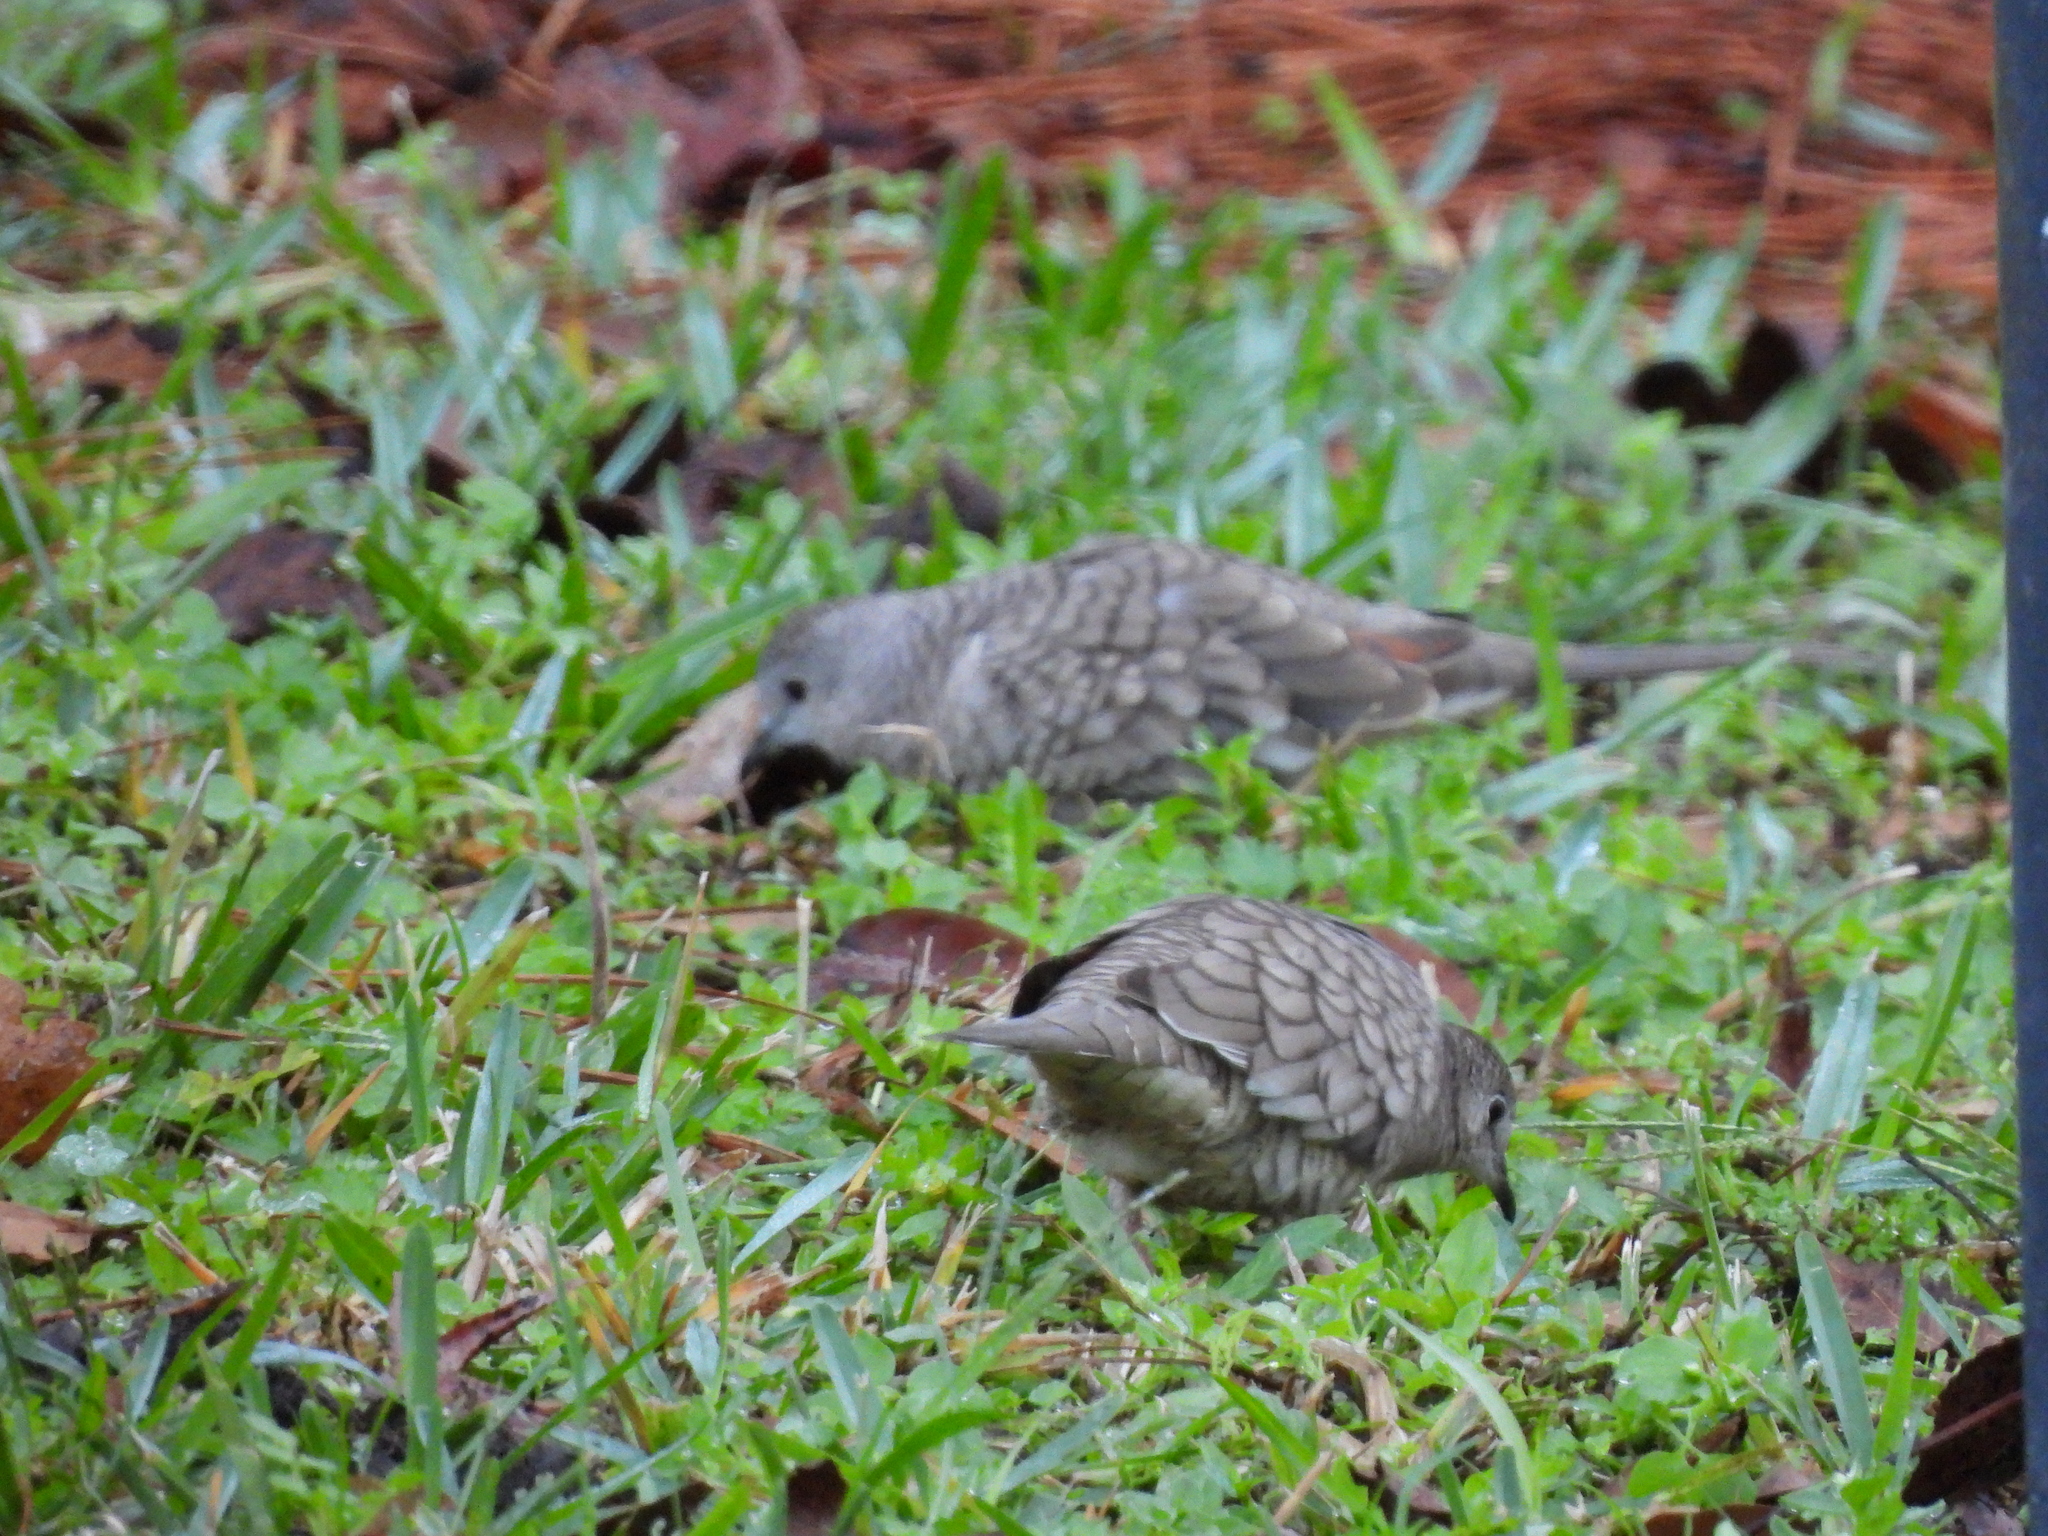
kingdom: Animalia
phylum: Chordata
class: Aves
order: Columbiformes
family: Columbidae
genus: Columbina
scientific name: Columbina inca
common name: Inca dove
